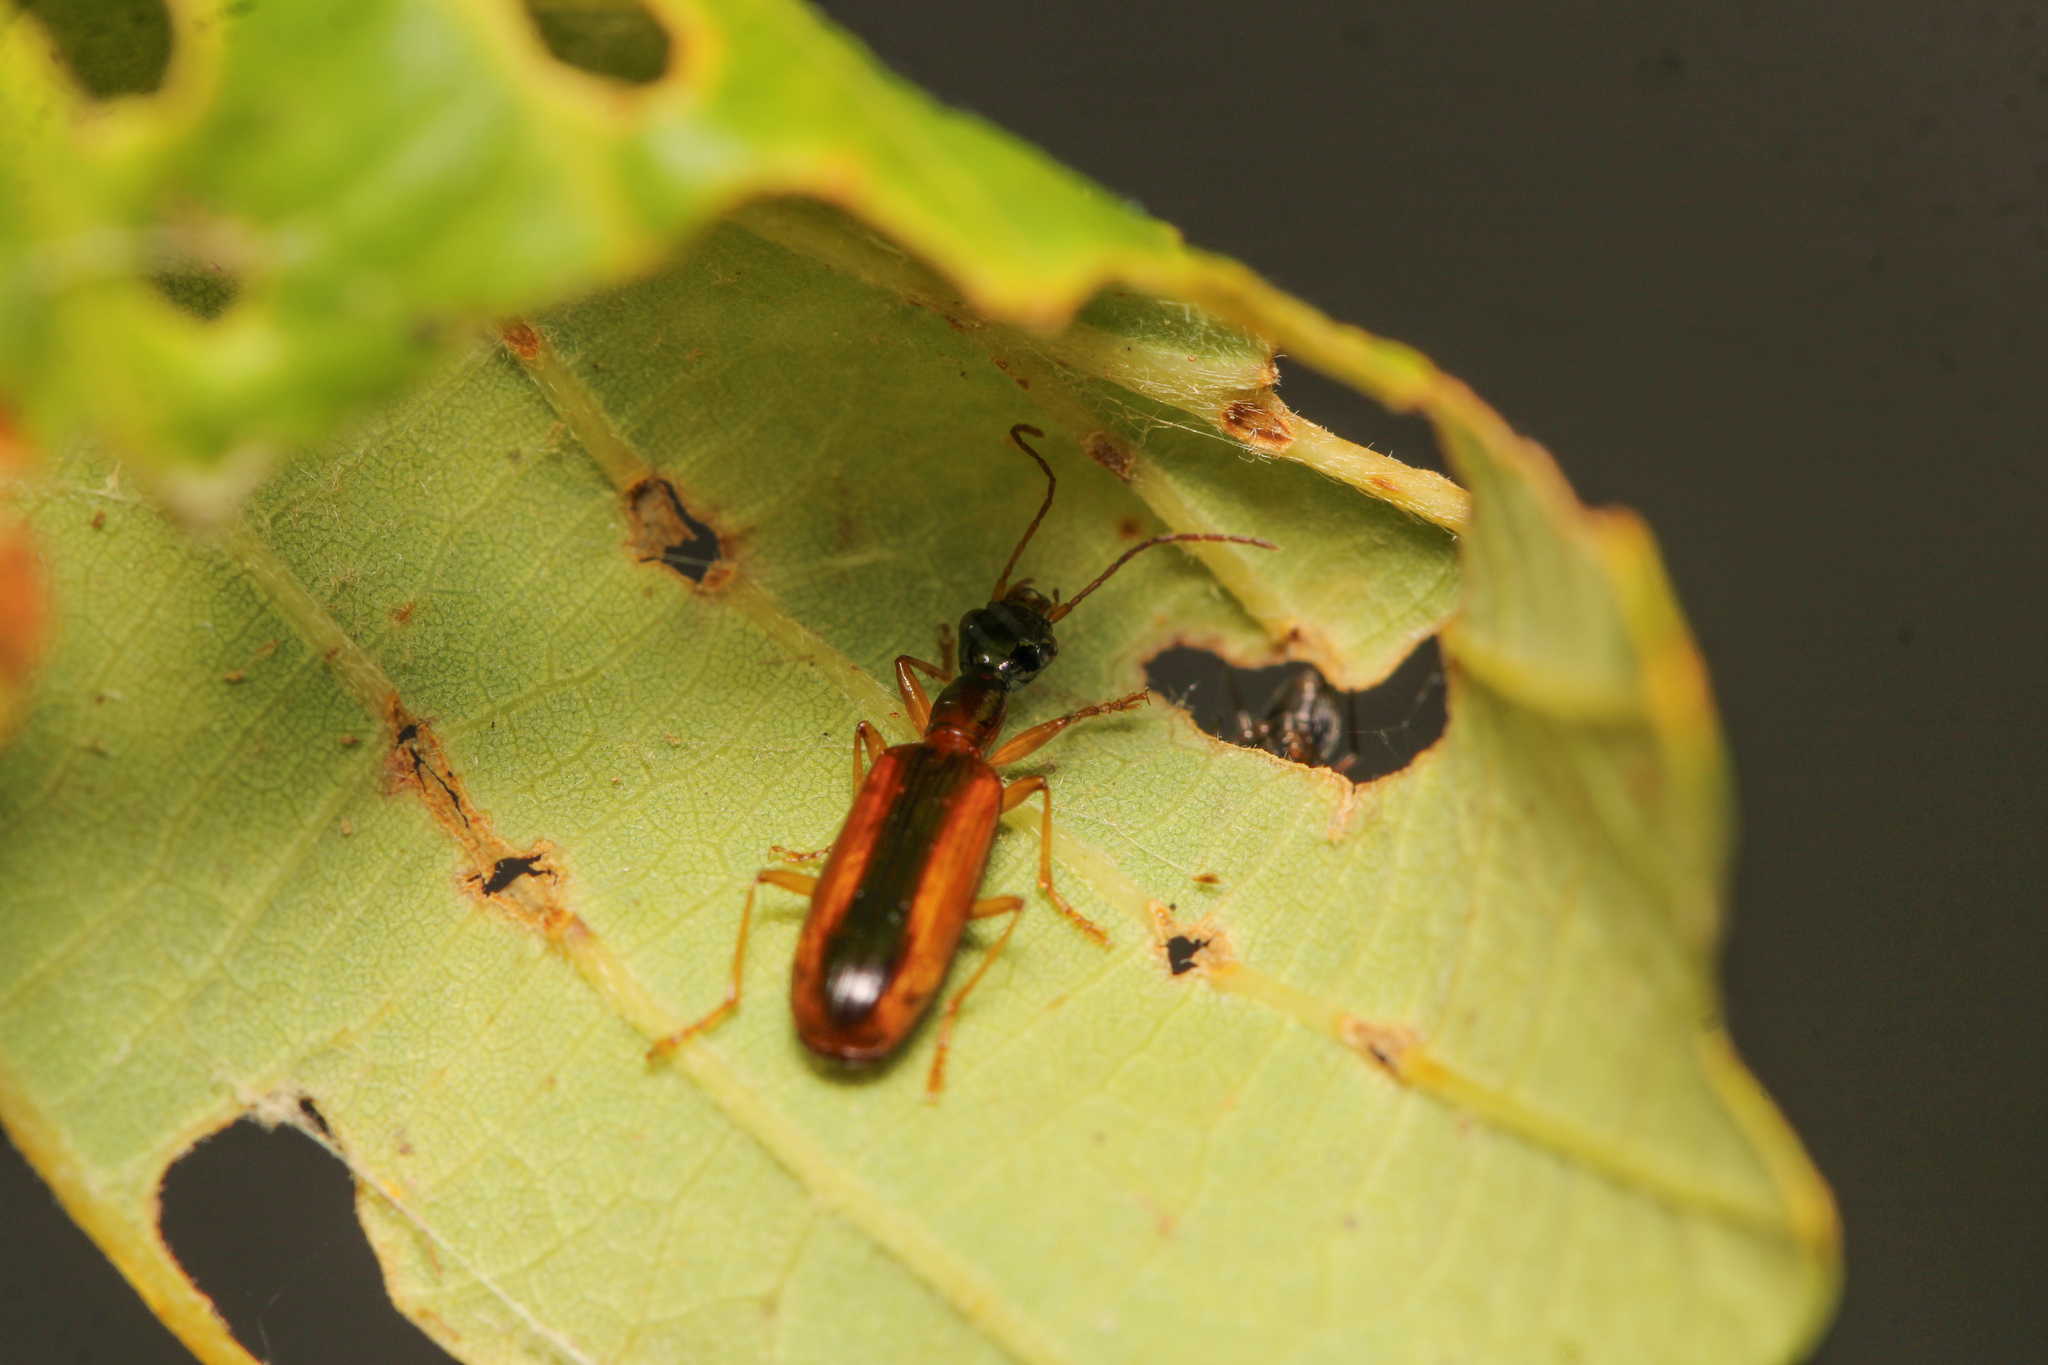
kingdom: Animalia
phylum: Arthropoda
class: Insecta
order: Coleoptera
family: Carabidae
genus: Leptotrachelus
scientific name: Leptotrachelus dorsalis
